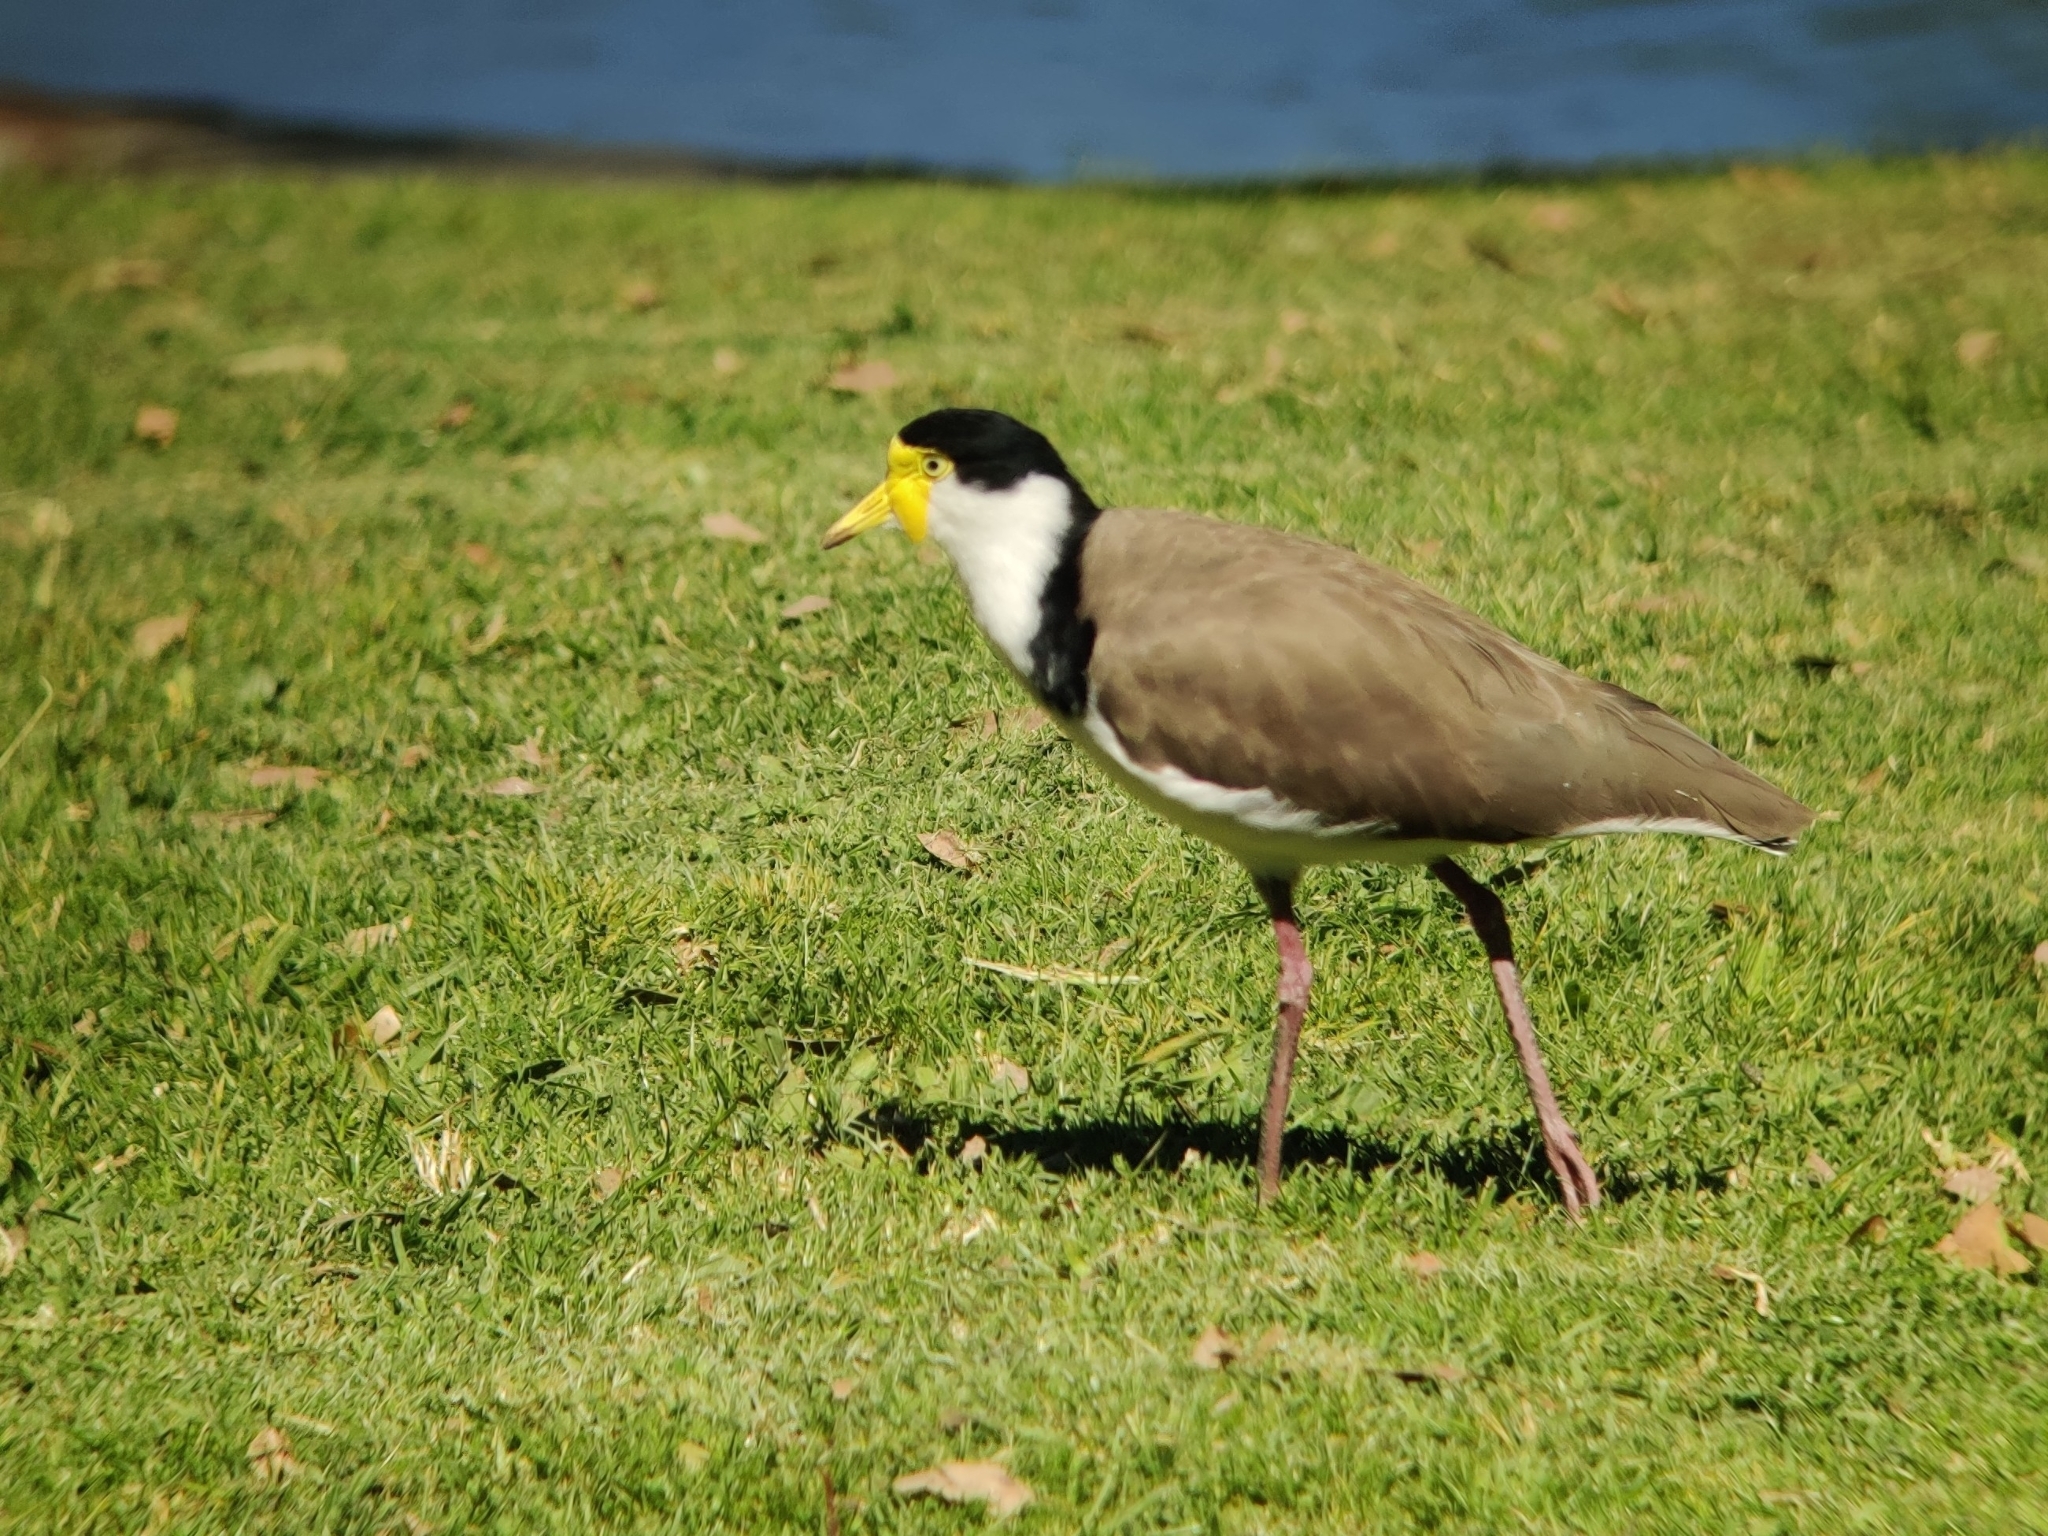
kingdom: Animalia
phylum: Chordata
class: Aves
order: Charadriiformes
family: Charadriidae
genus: Vanellus
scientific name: Vanellus miles
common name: Masked lapwing
